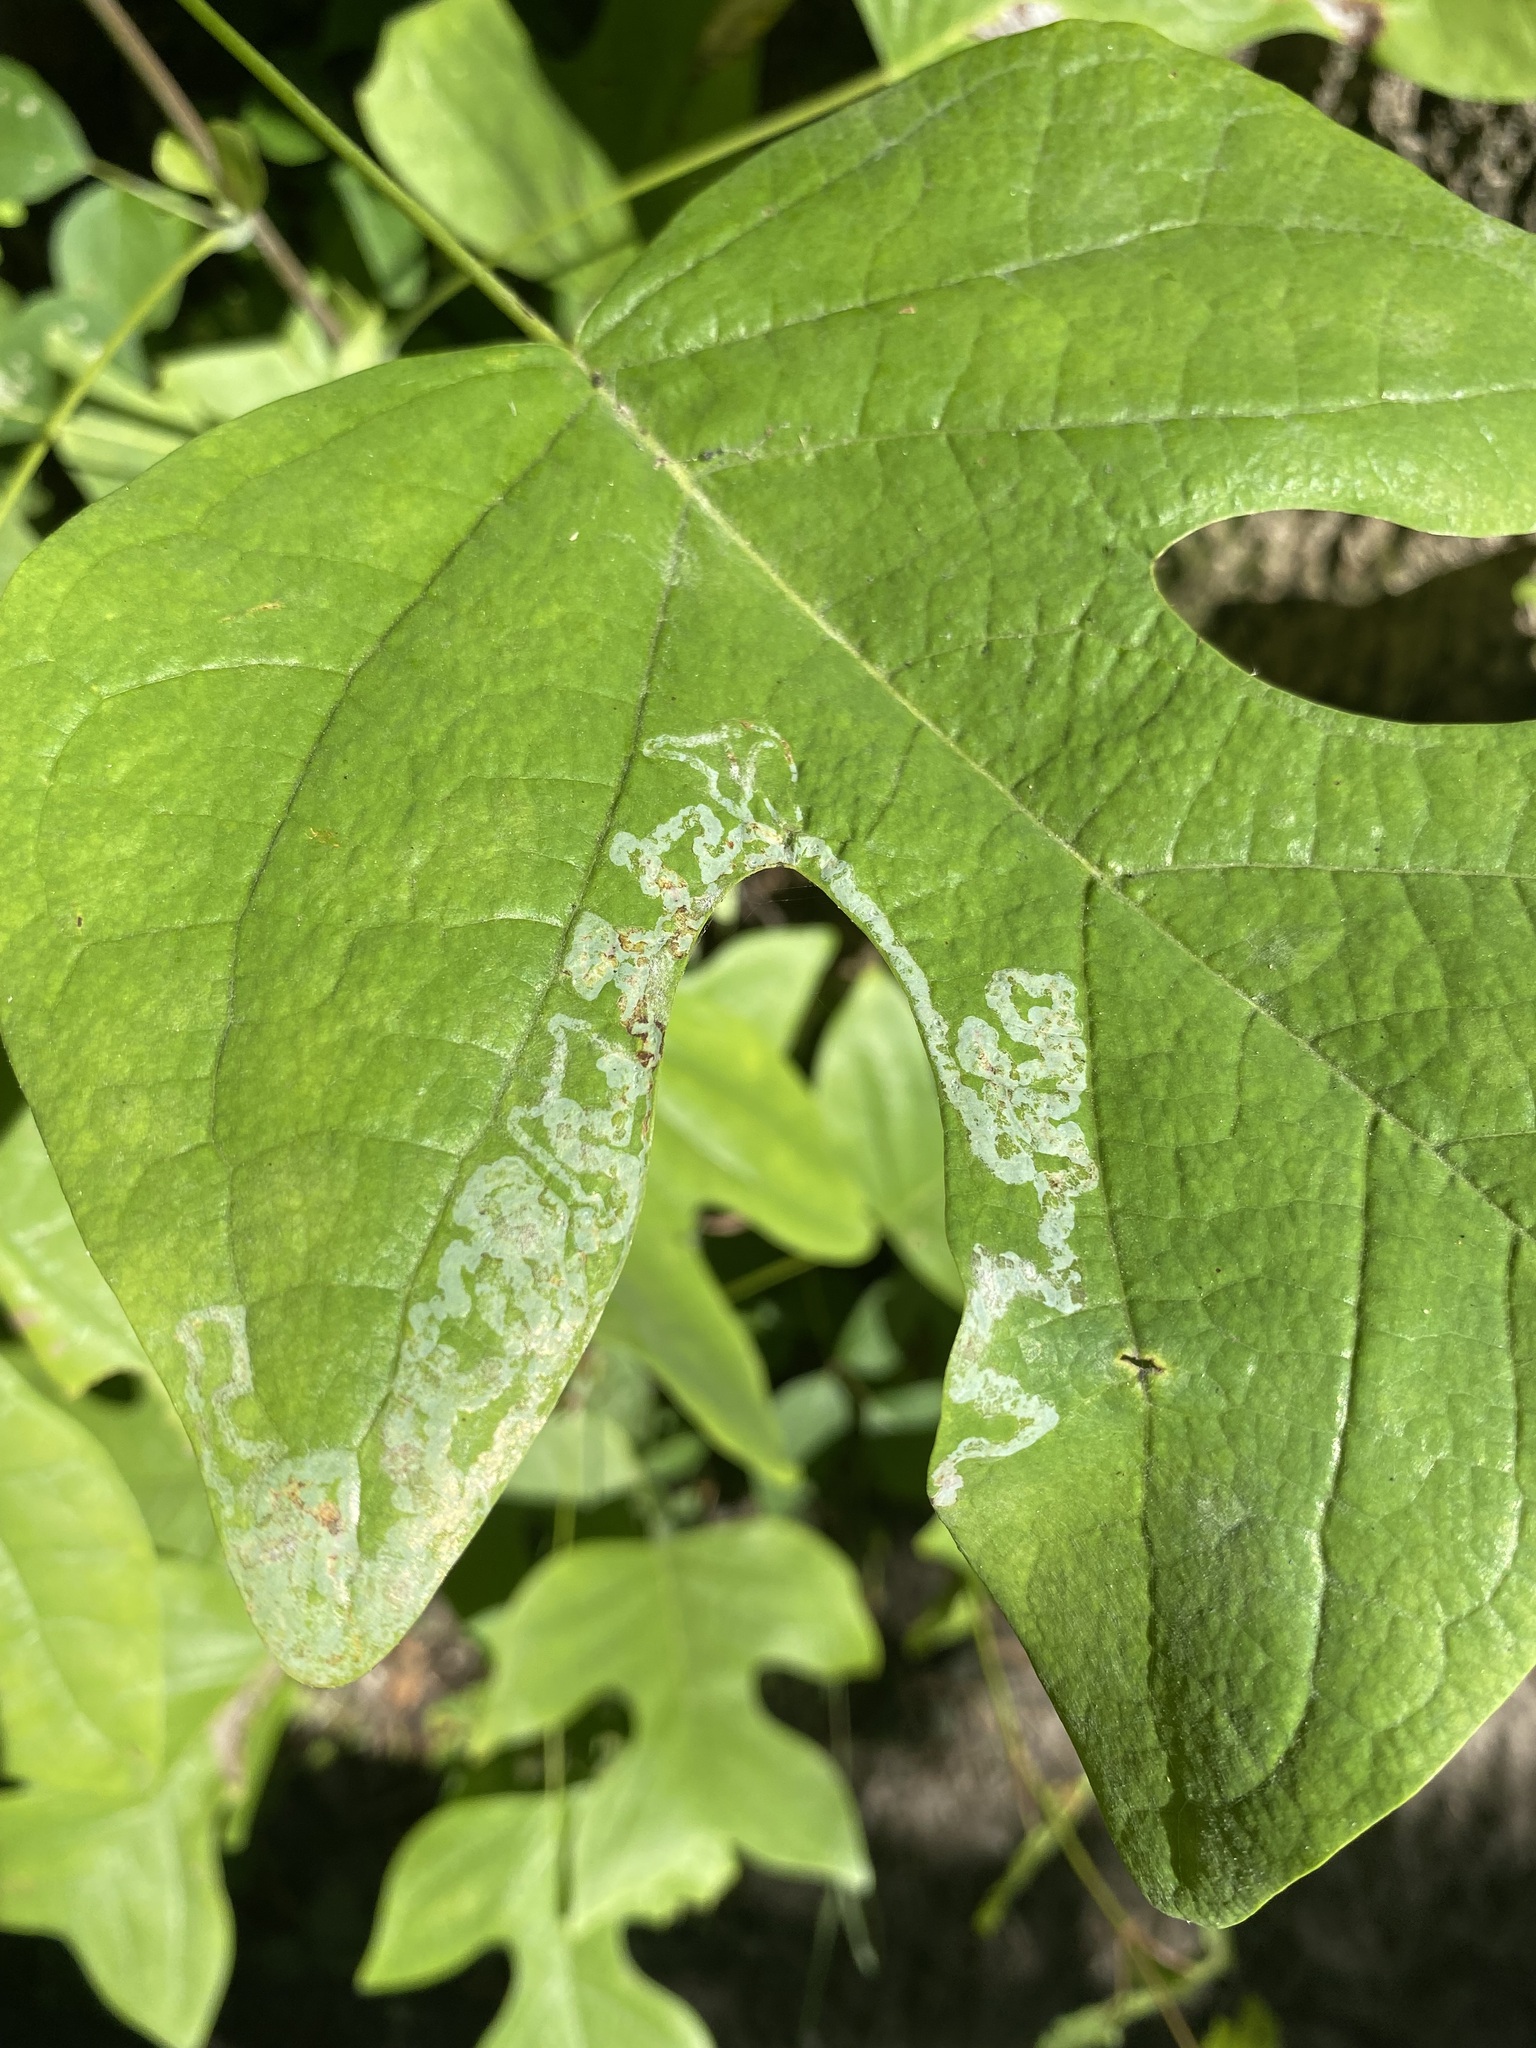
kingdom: Animalia
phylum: Arthropoda
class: Insecta
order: Lepidoptera
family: Gracillariidae
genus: Phyllocnistis
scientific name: Phyllocnistis liriodendronella
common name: Tulip tree leaf miner
